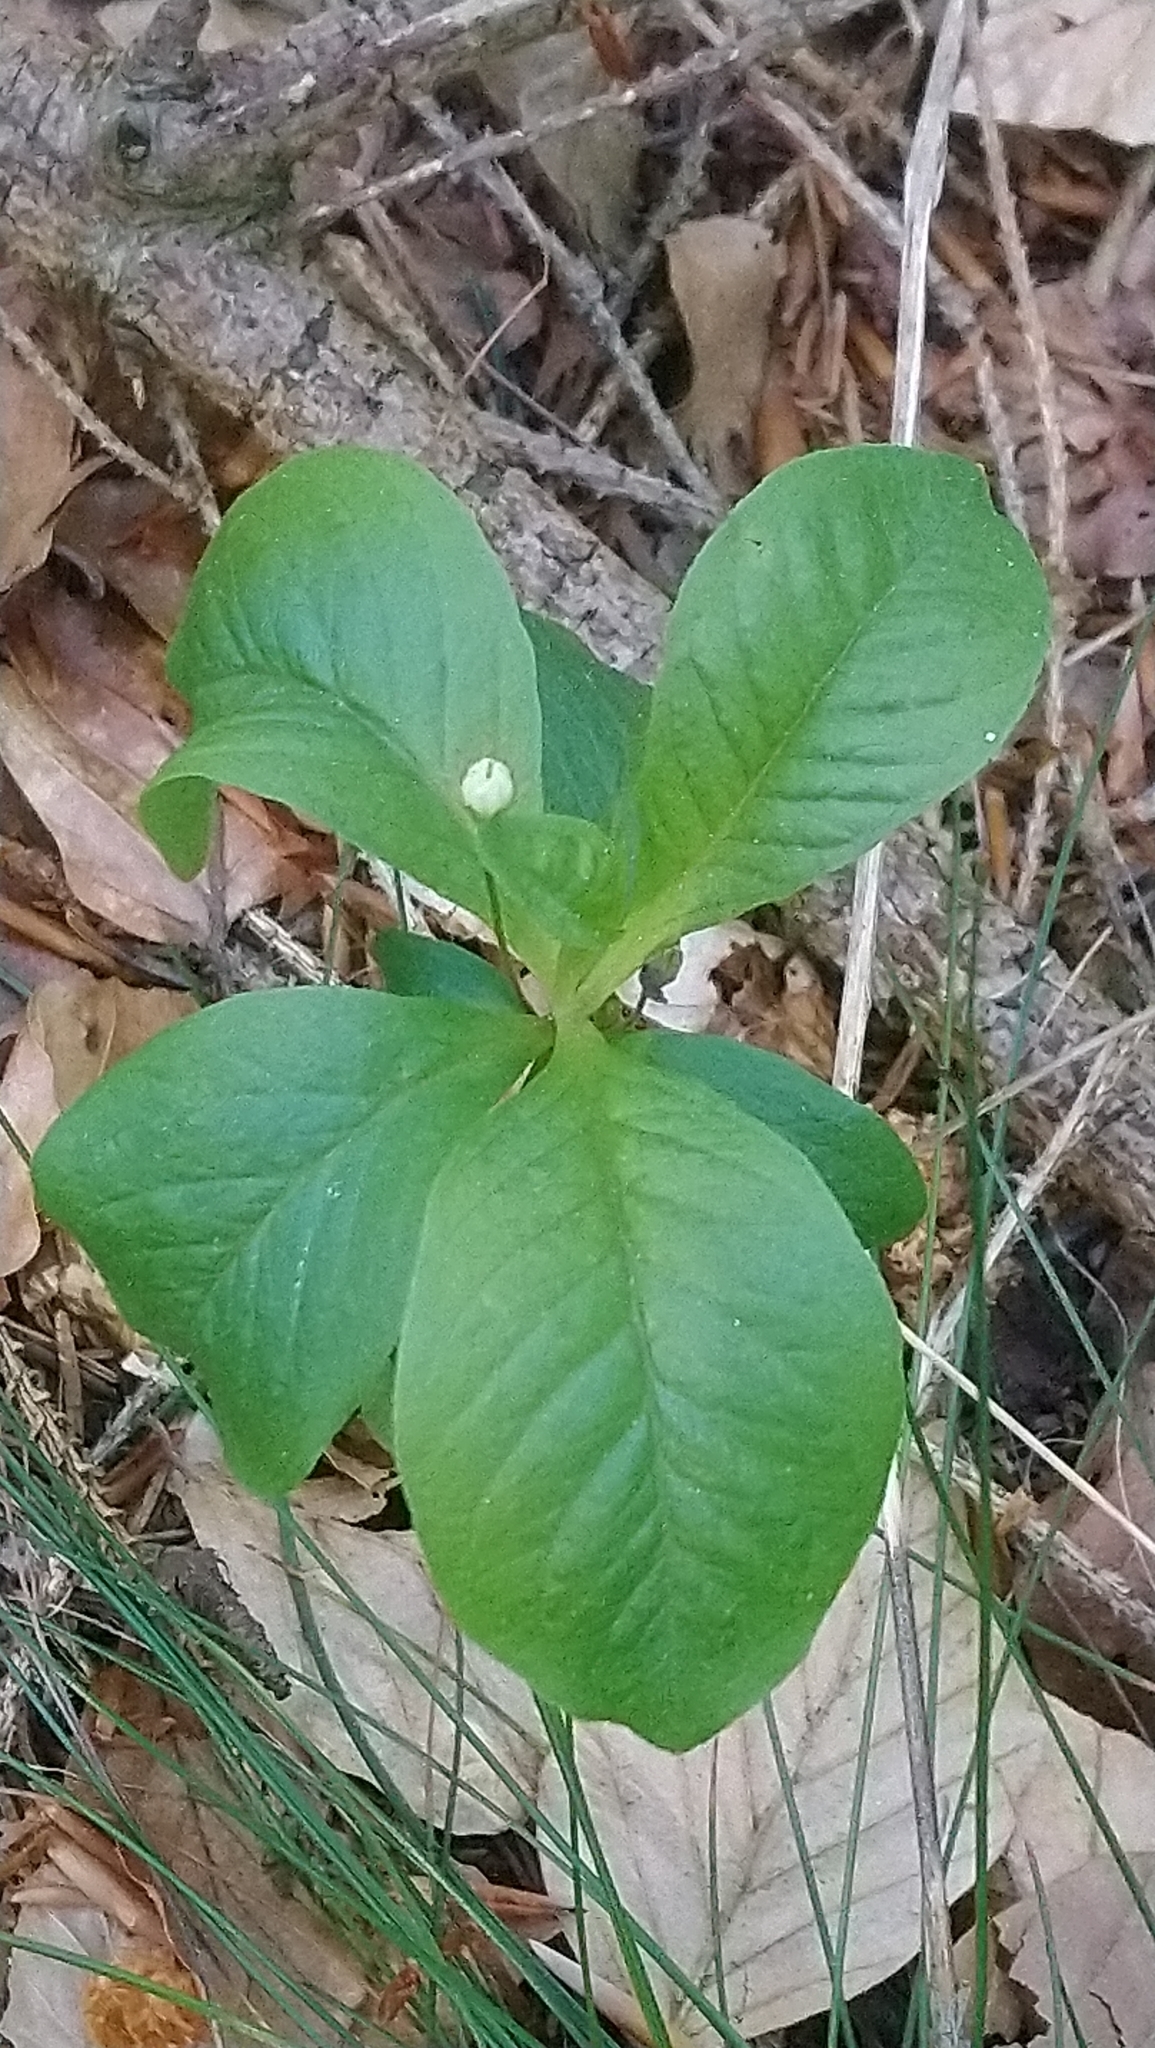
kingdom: Plantae
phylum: Tracheophyta
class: Magnoliopsida
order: Ericales
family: Primulaceae
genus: Lysimachia
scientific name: Lysimachia europaea
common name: Arctic starflower
